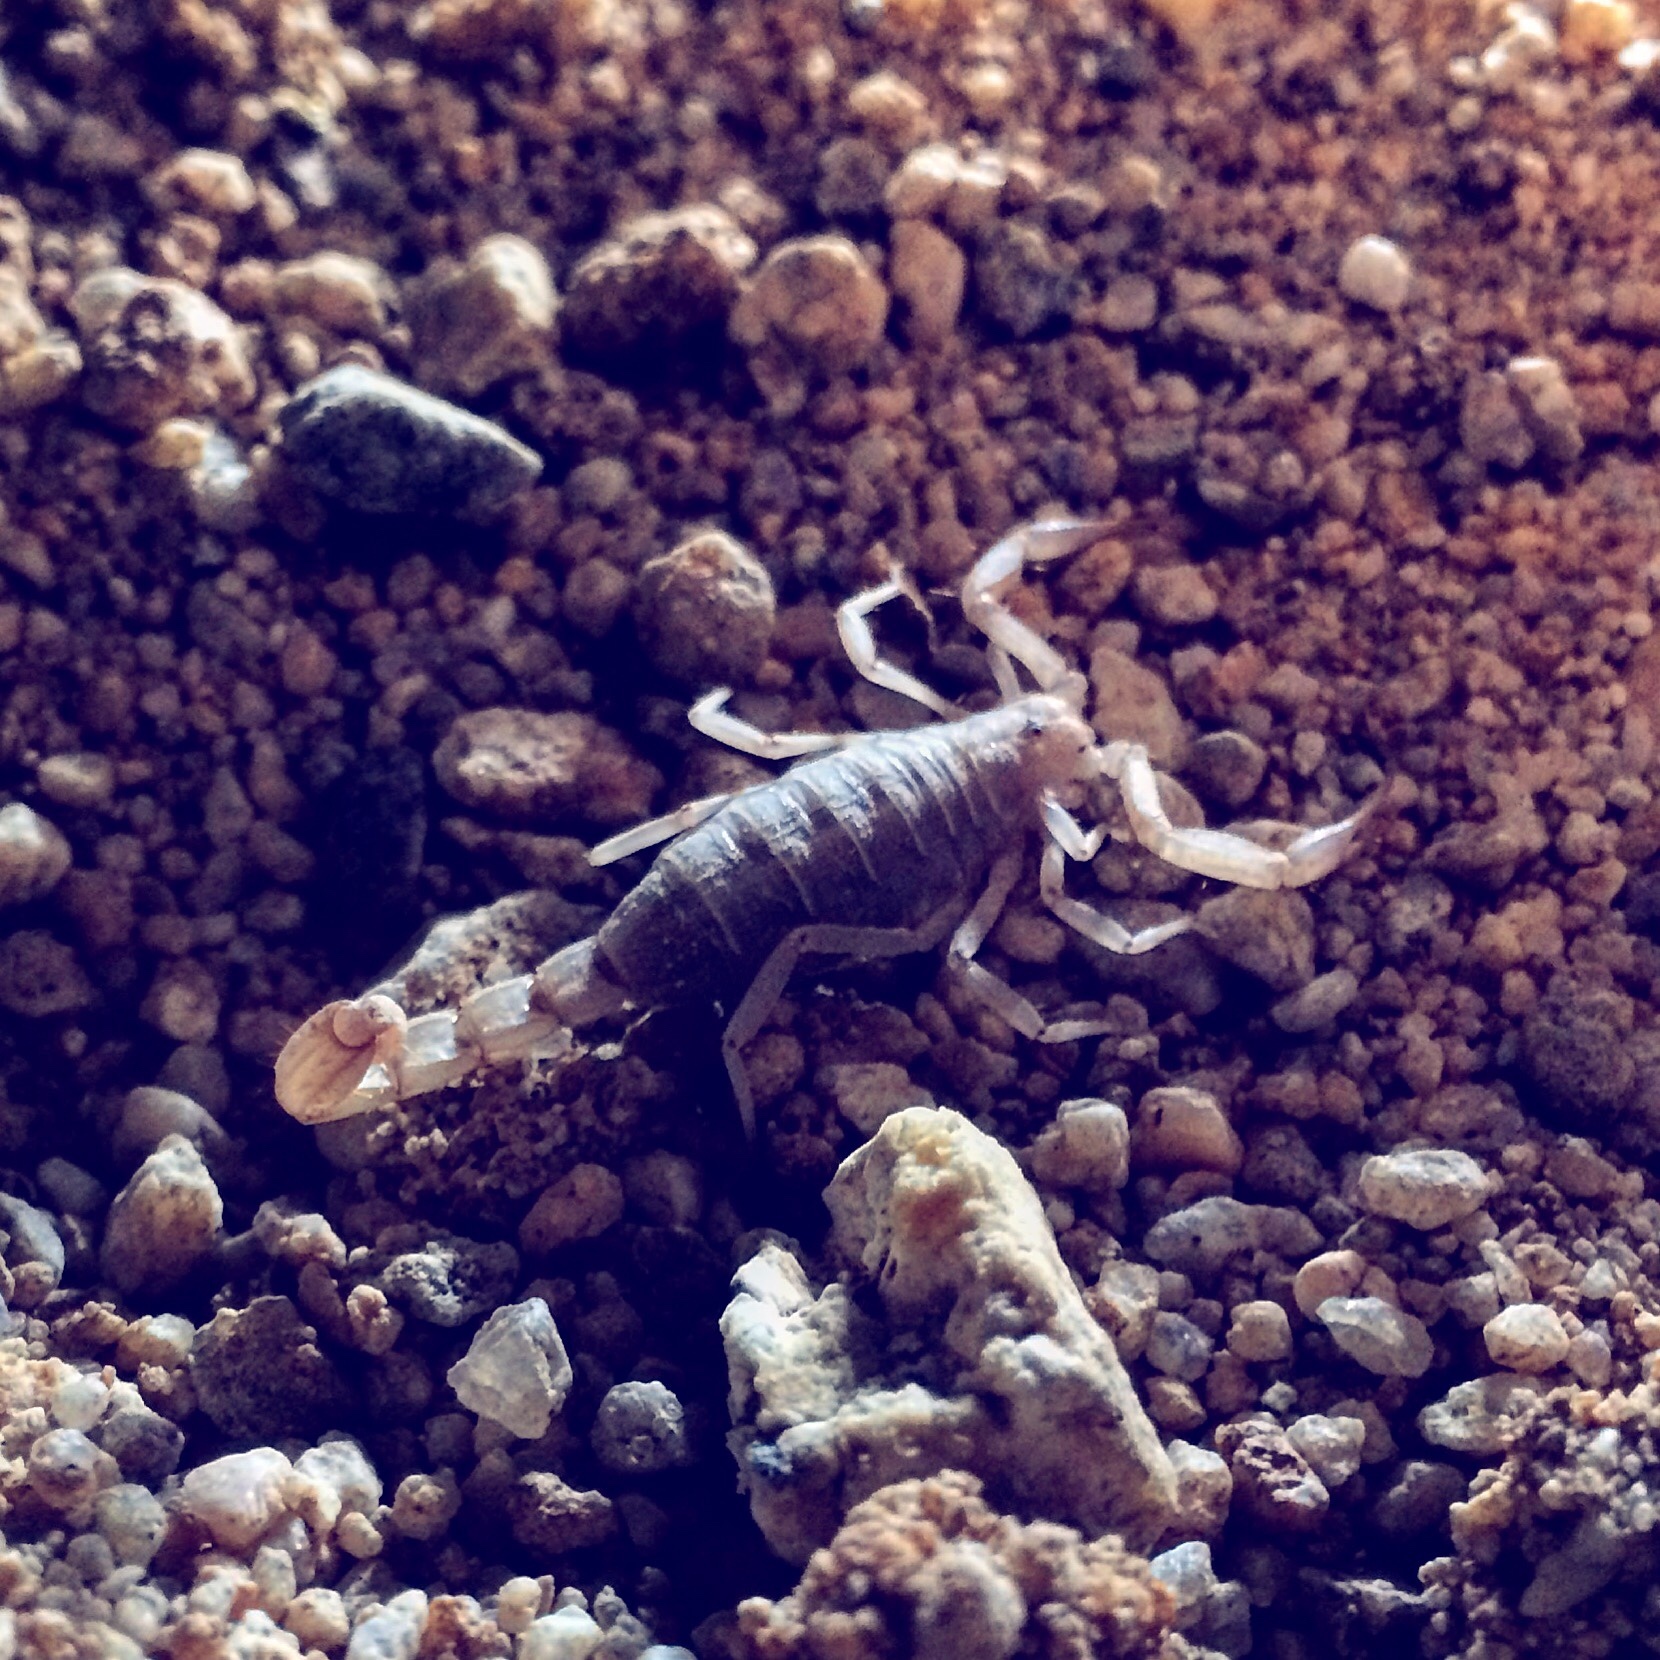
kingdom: Animalia
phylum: Arthropoda
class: Arachnida
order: Scorpiones
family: Vaejovidae
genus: Paravaejovis
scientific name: Paravaejovis confusus
